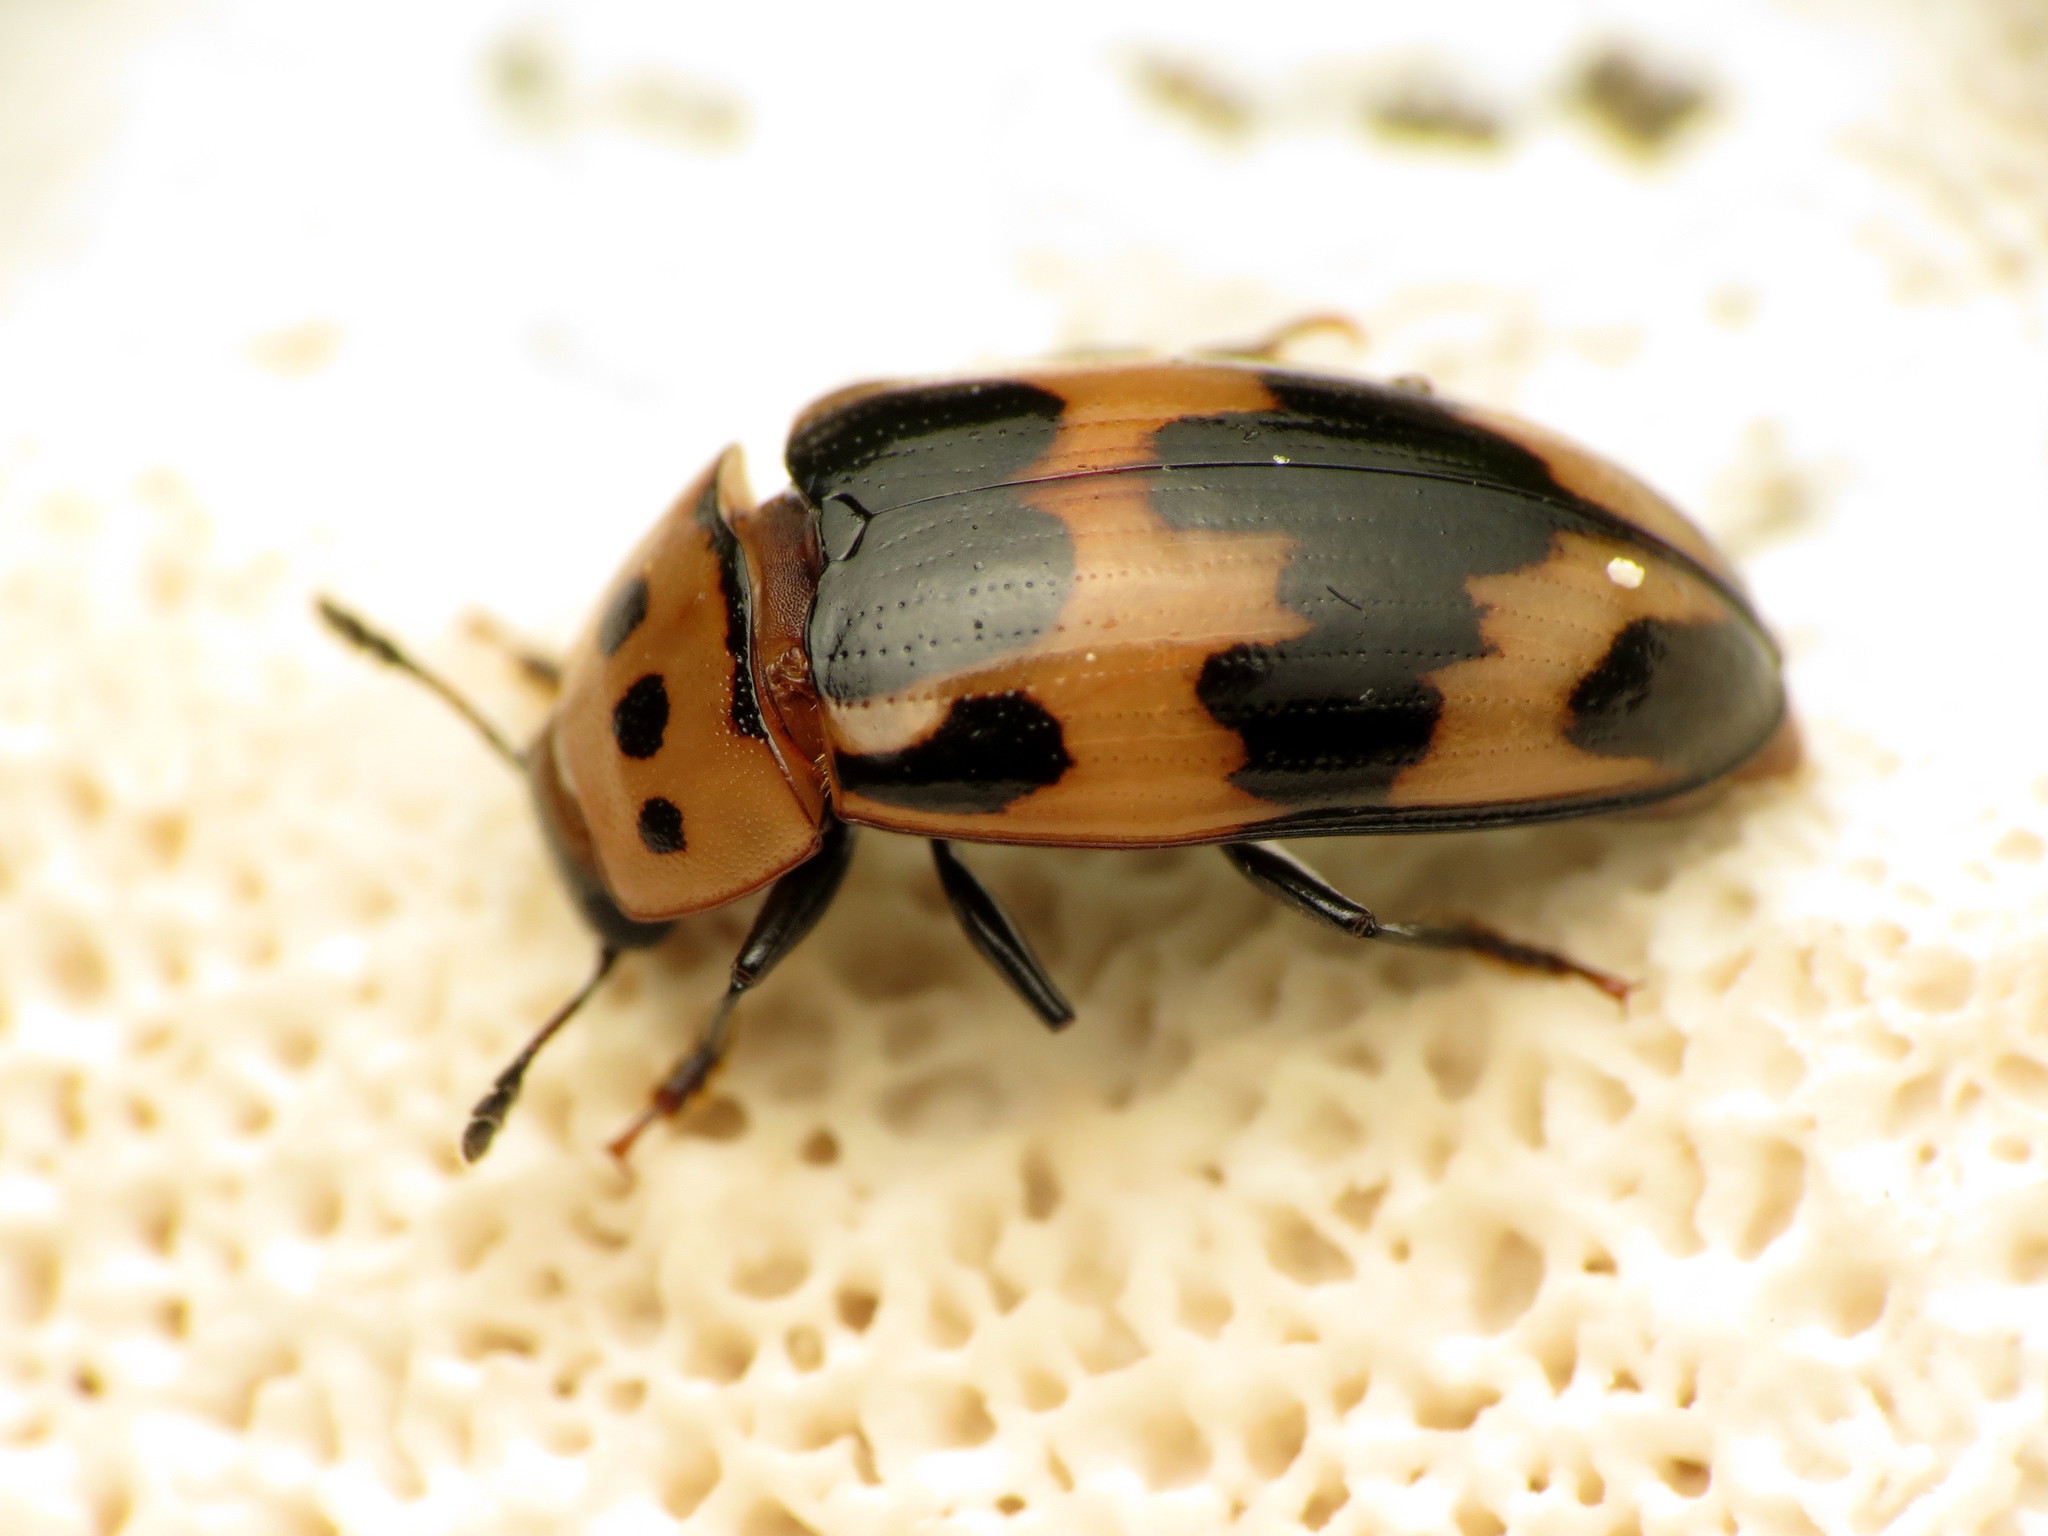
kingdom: Animalia
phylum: Arthropoda
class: Insecta
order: Coleoptera
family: Erotylidae
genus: Ischyrus
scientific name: Ischyrus quadripunctatus
